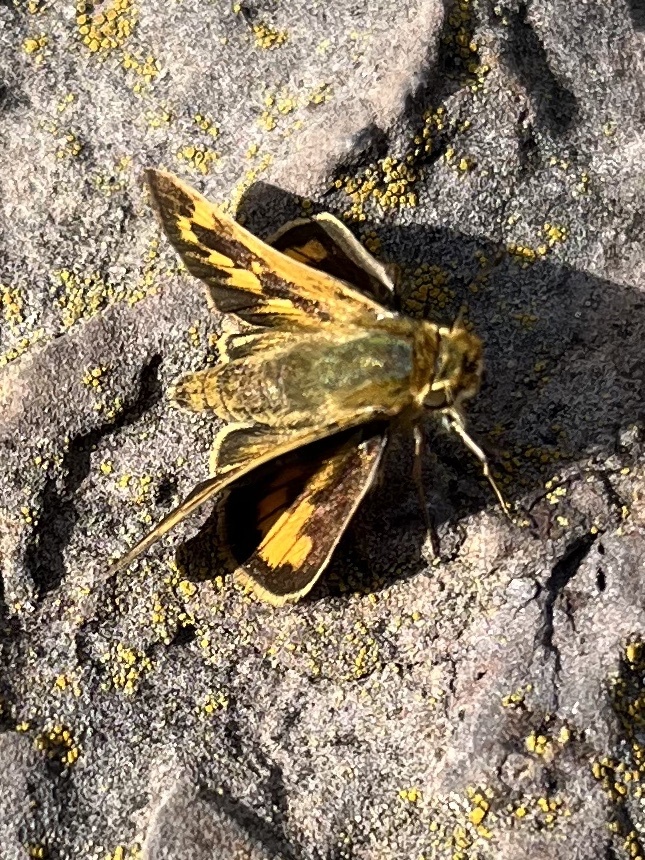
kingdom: Animalia
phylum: Arthropoda
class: Insecta
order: Lepidoptera
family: Hesperiidae
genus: Hylephila
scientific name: Hylephila phyleus
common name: Fiery skipper
